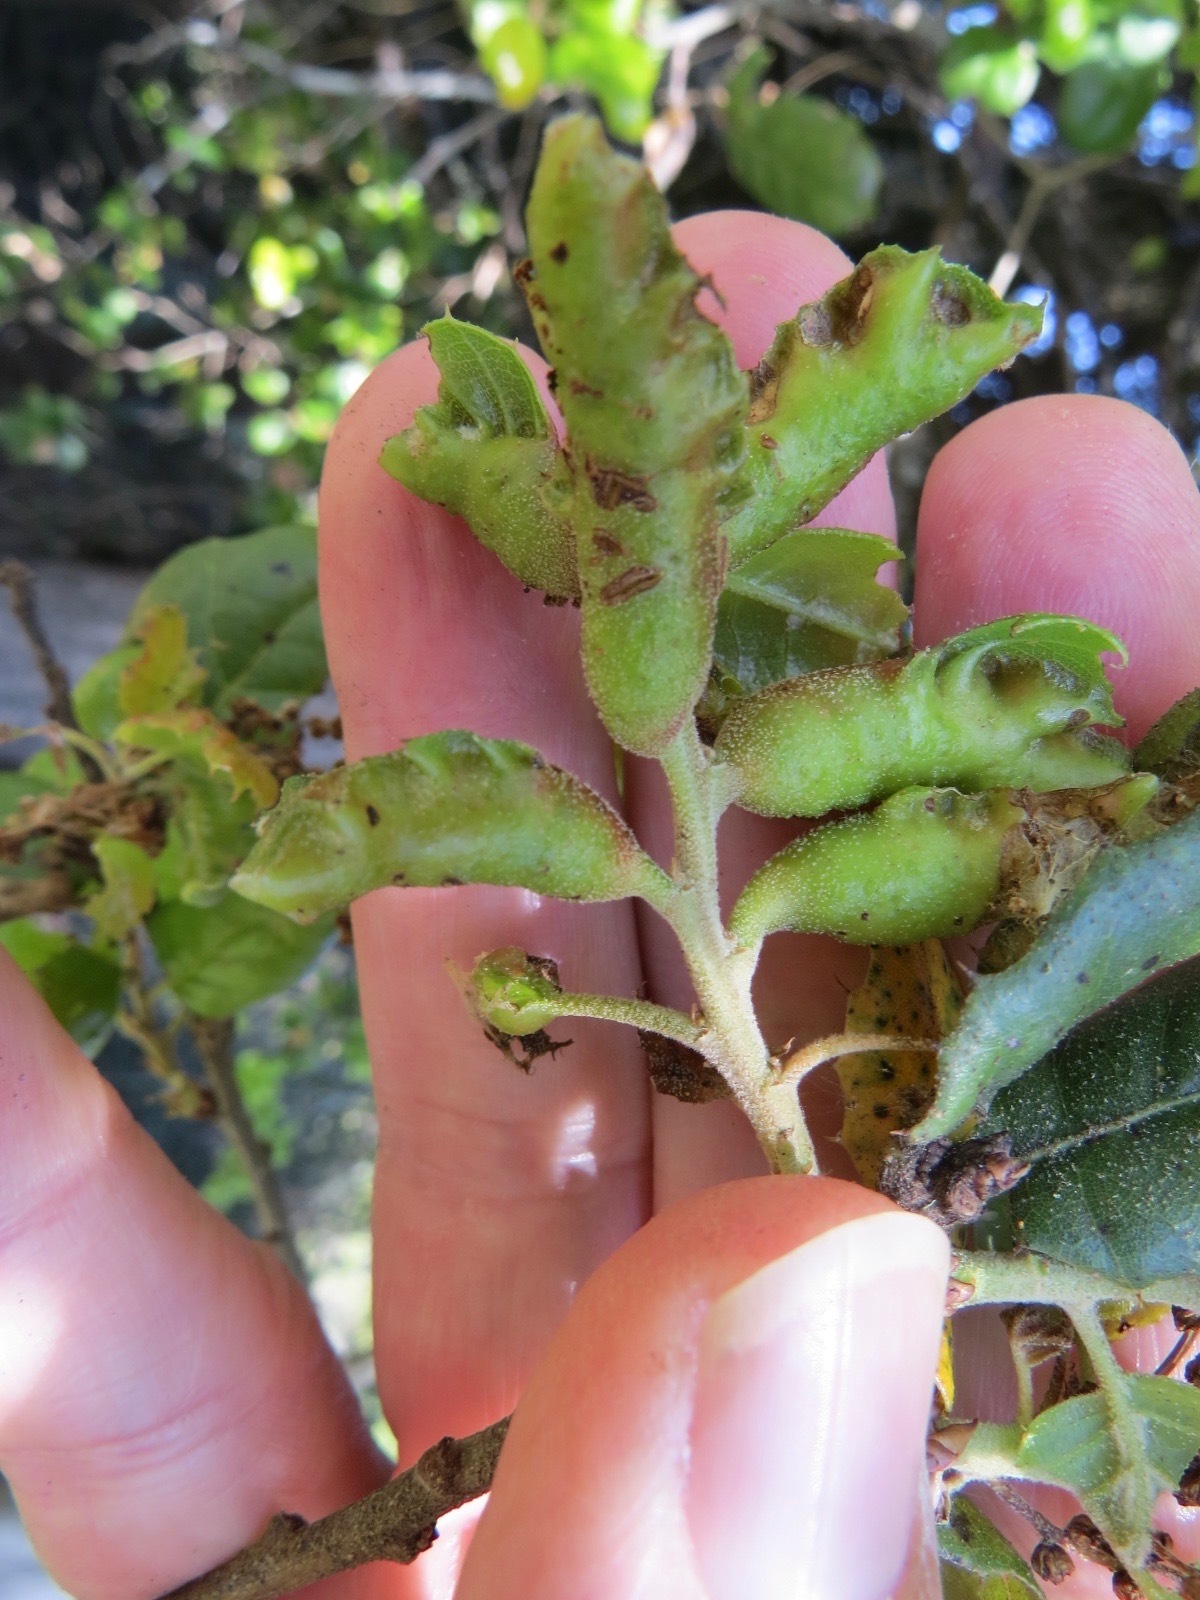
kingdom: Animalia
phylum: Arthropoda
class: Insecta
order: Hymenoptera
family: Cynipidae
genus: Melikaiella
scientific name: Melikaiella
